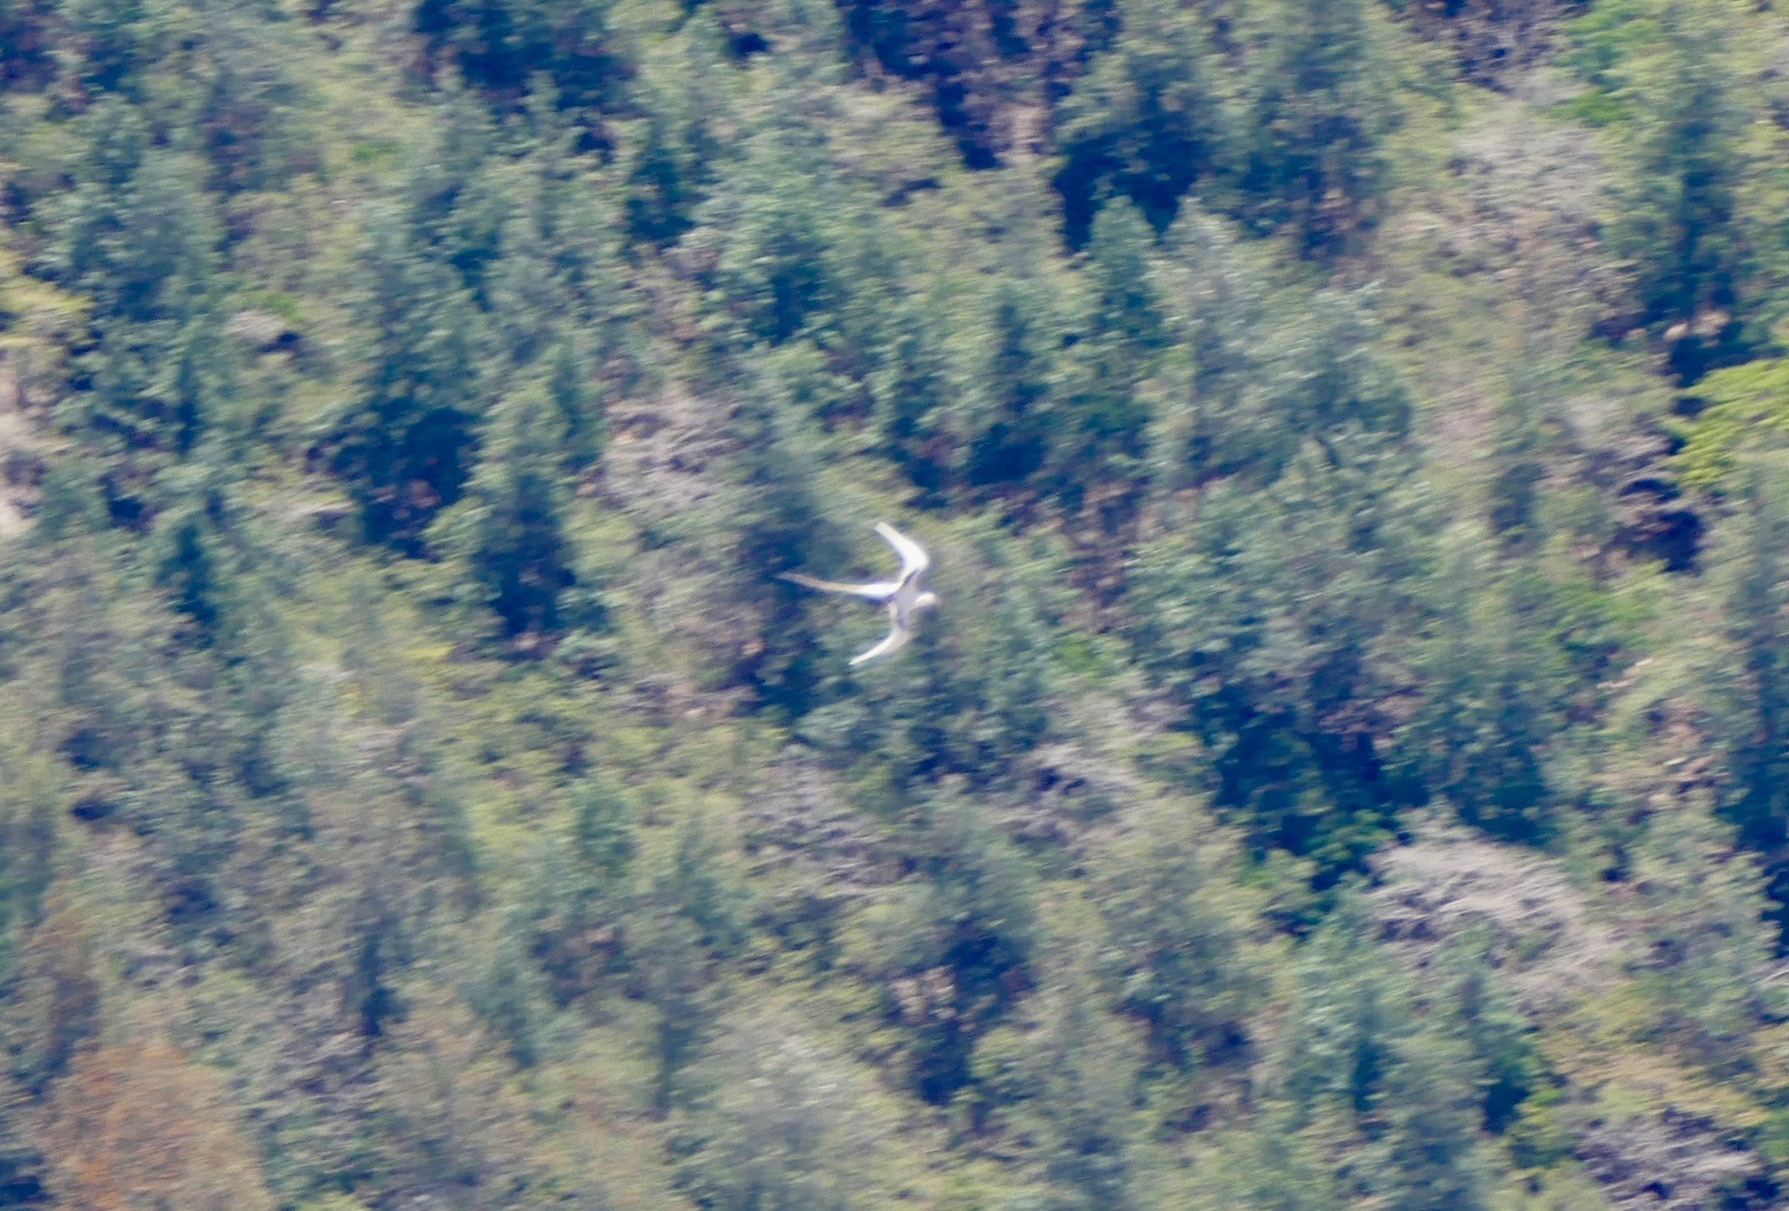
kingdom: Animalia
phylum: Chordata
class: Aves
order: Phaethontiformes
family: Phaethontidae
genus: Phaethon
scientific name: Phaethon lepturus
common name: White-tailed tropicbird
